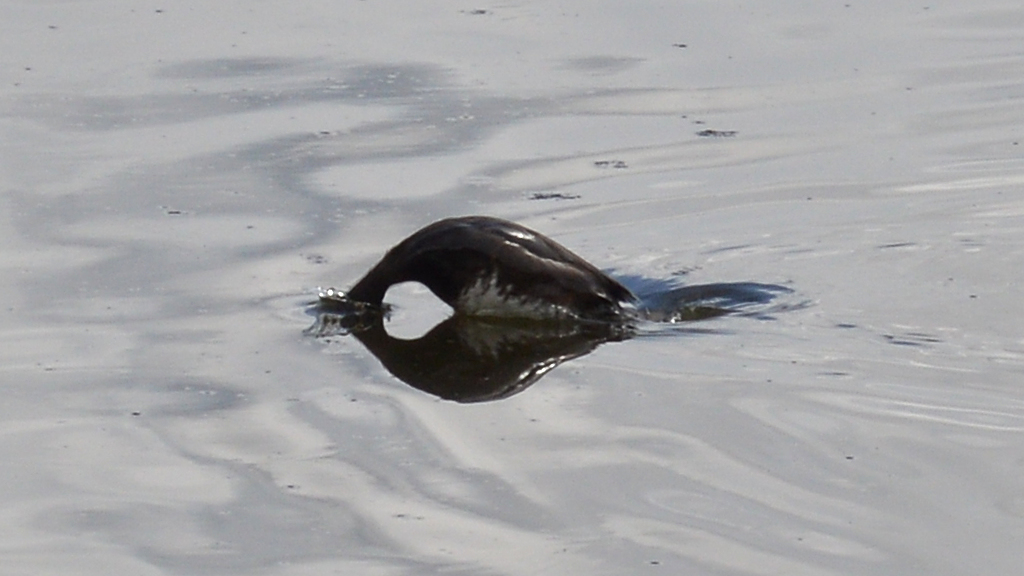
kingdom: Animalia
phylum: Chordata
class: Aves
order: Anseriformes
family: Anatidae
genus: Aythya
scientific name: Aythya fuligula
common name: Tufted duck
